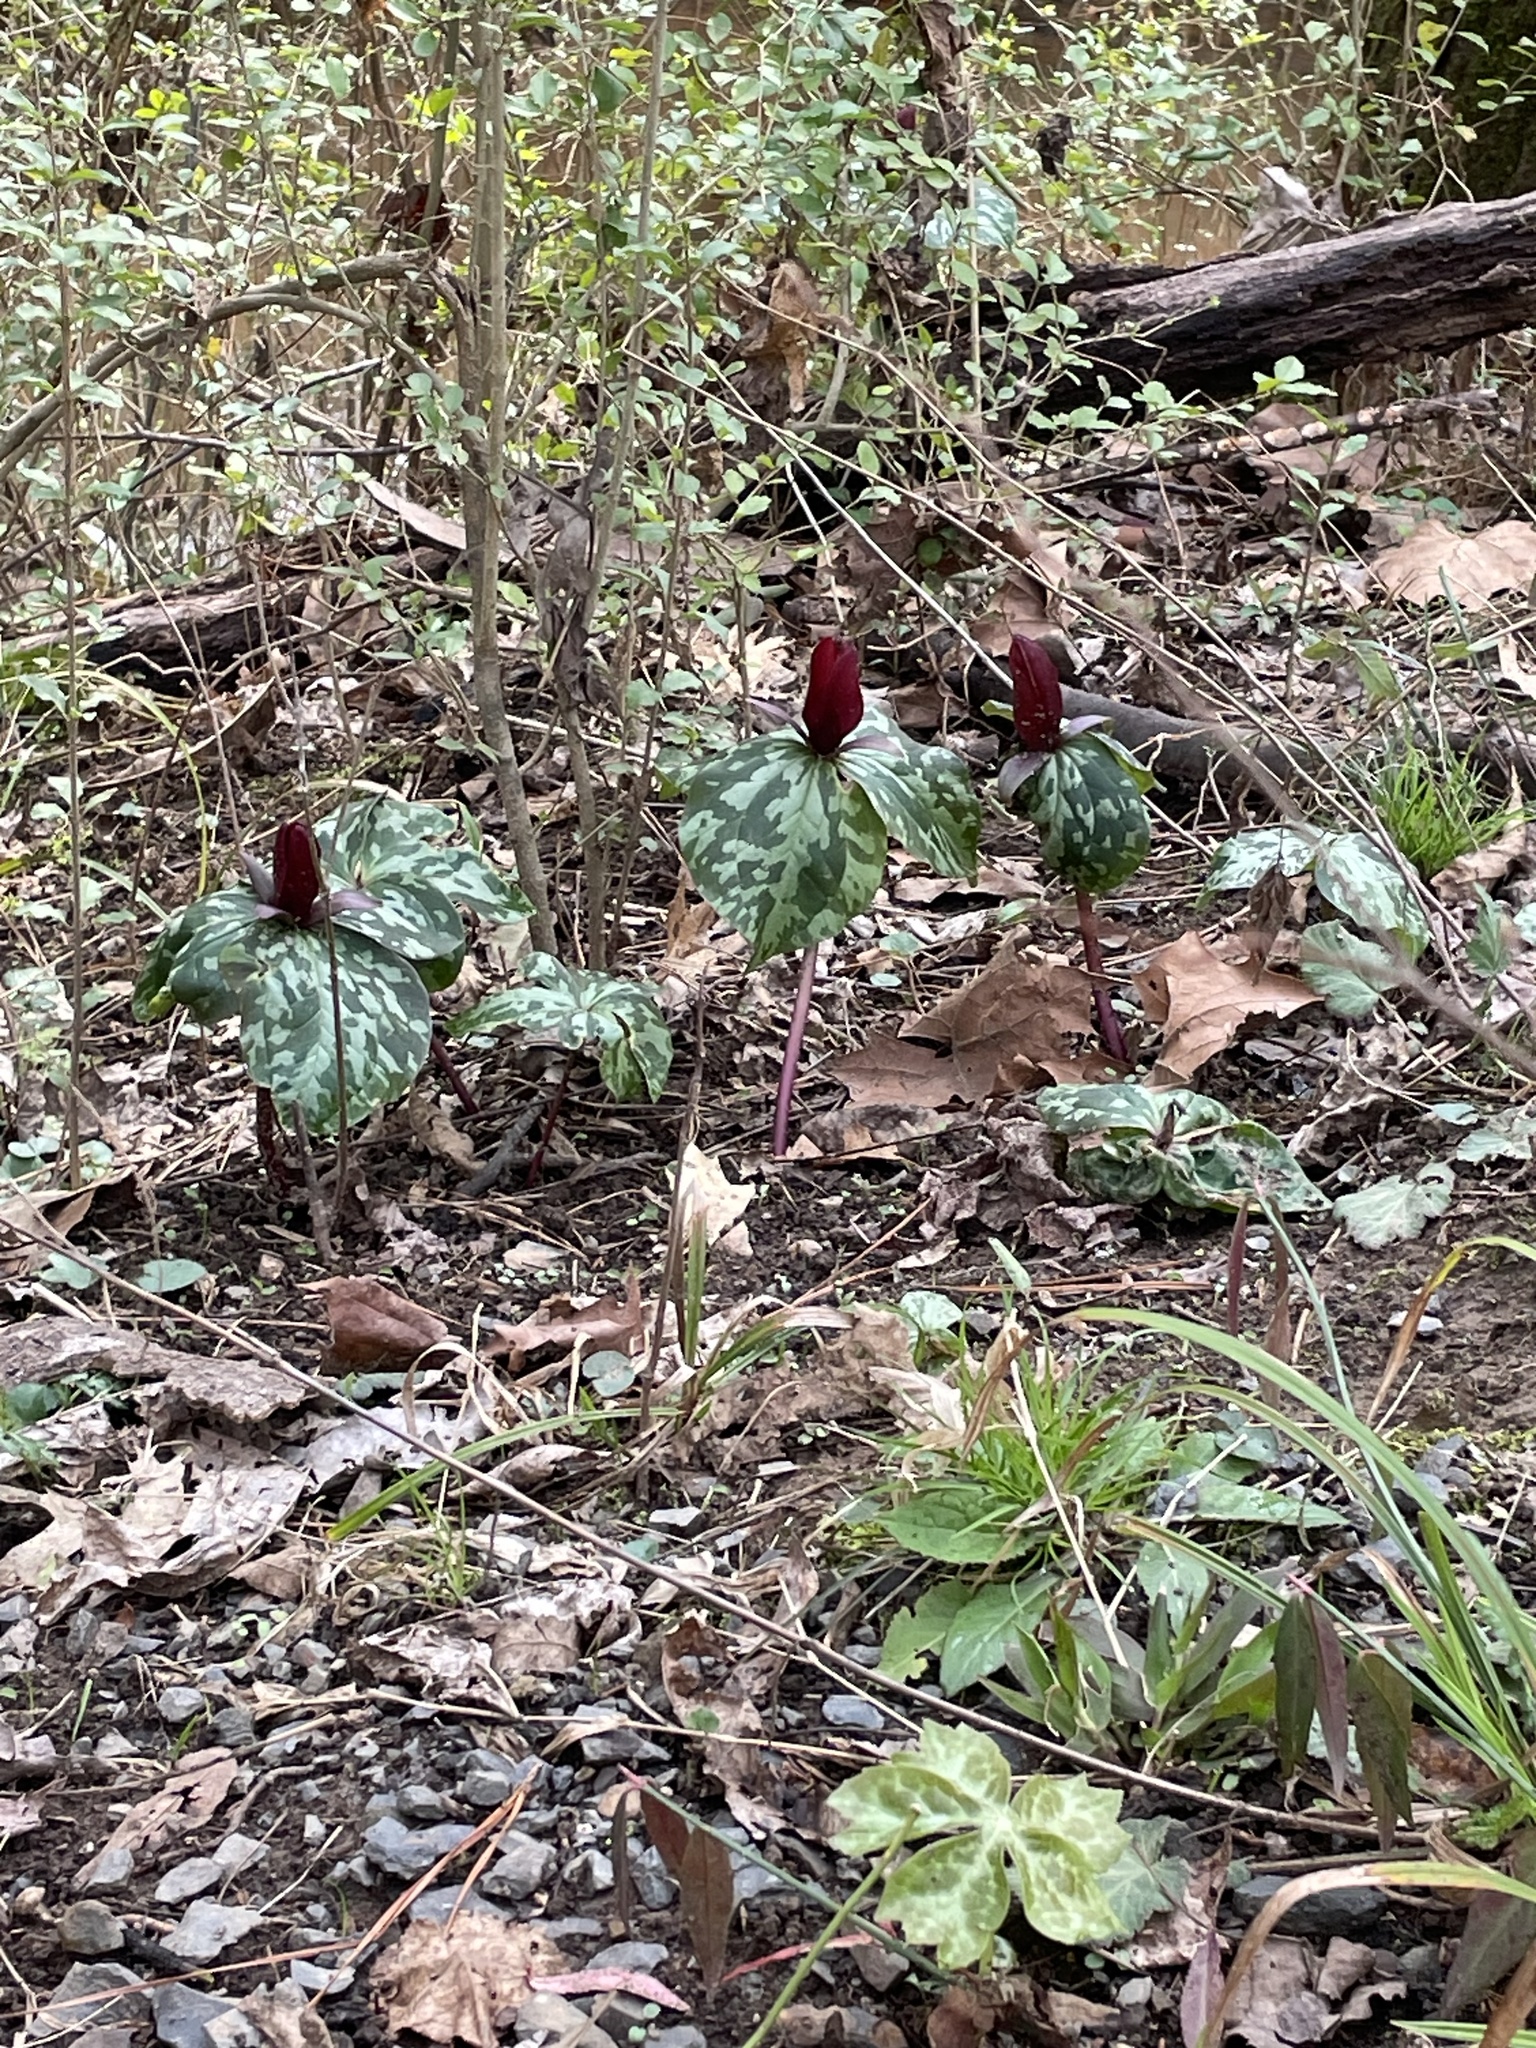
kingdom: Plantae
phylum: Tracheophyta
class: Liliopsida
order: Liliales
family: Melanthiaceae
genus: Trillium
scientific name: Trillium cuneatum
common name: Cuneate trillium
